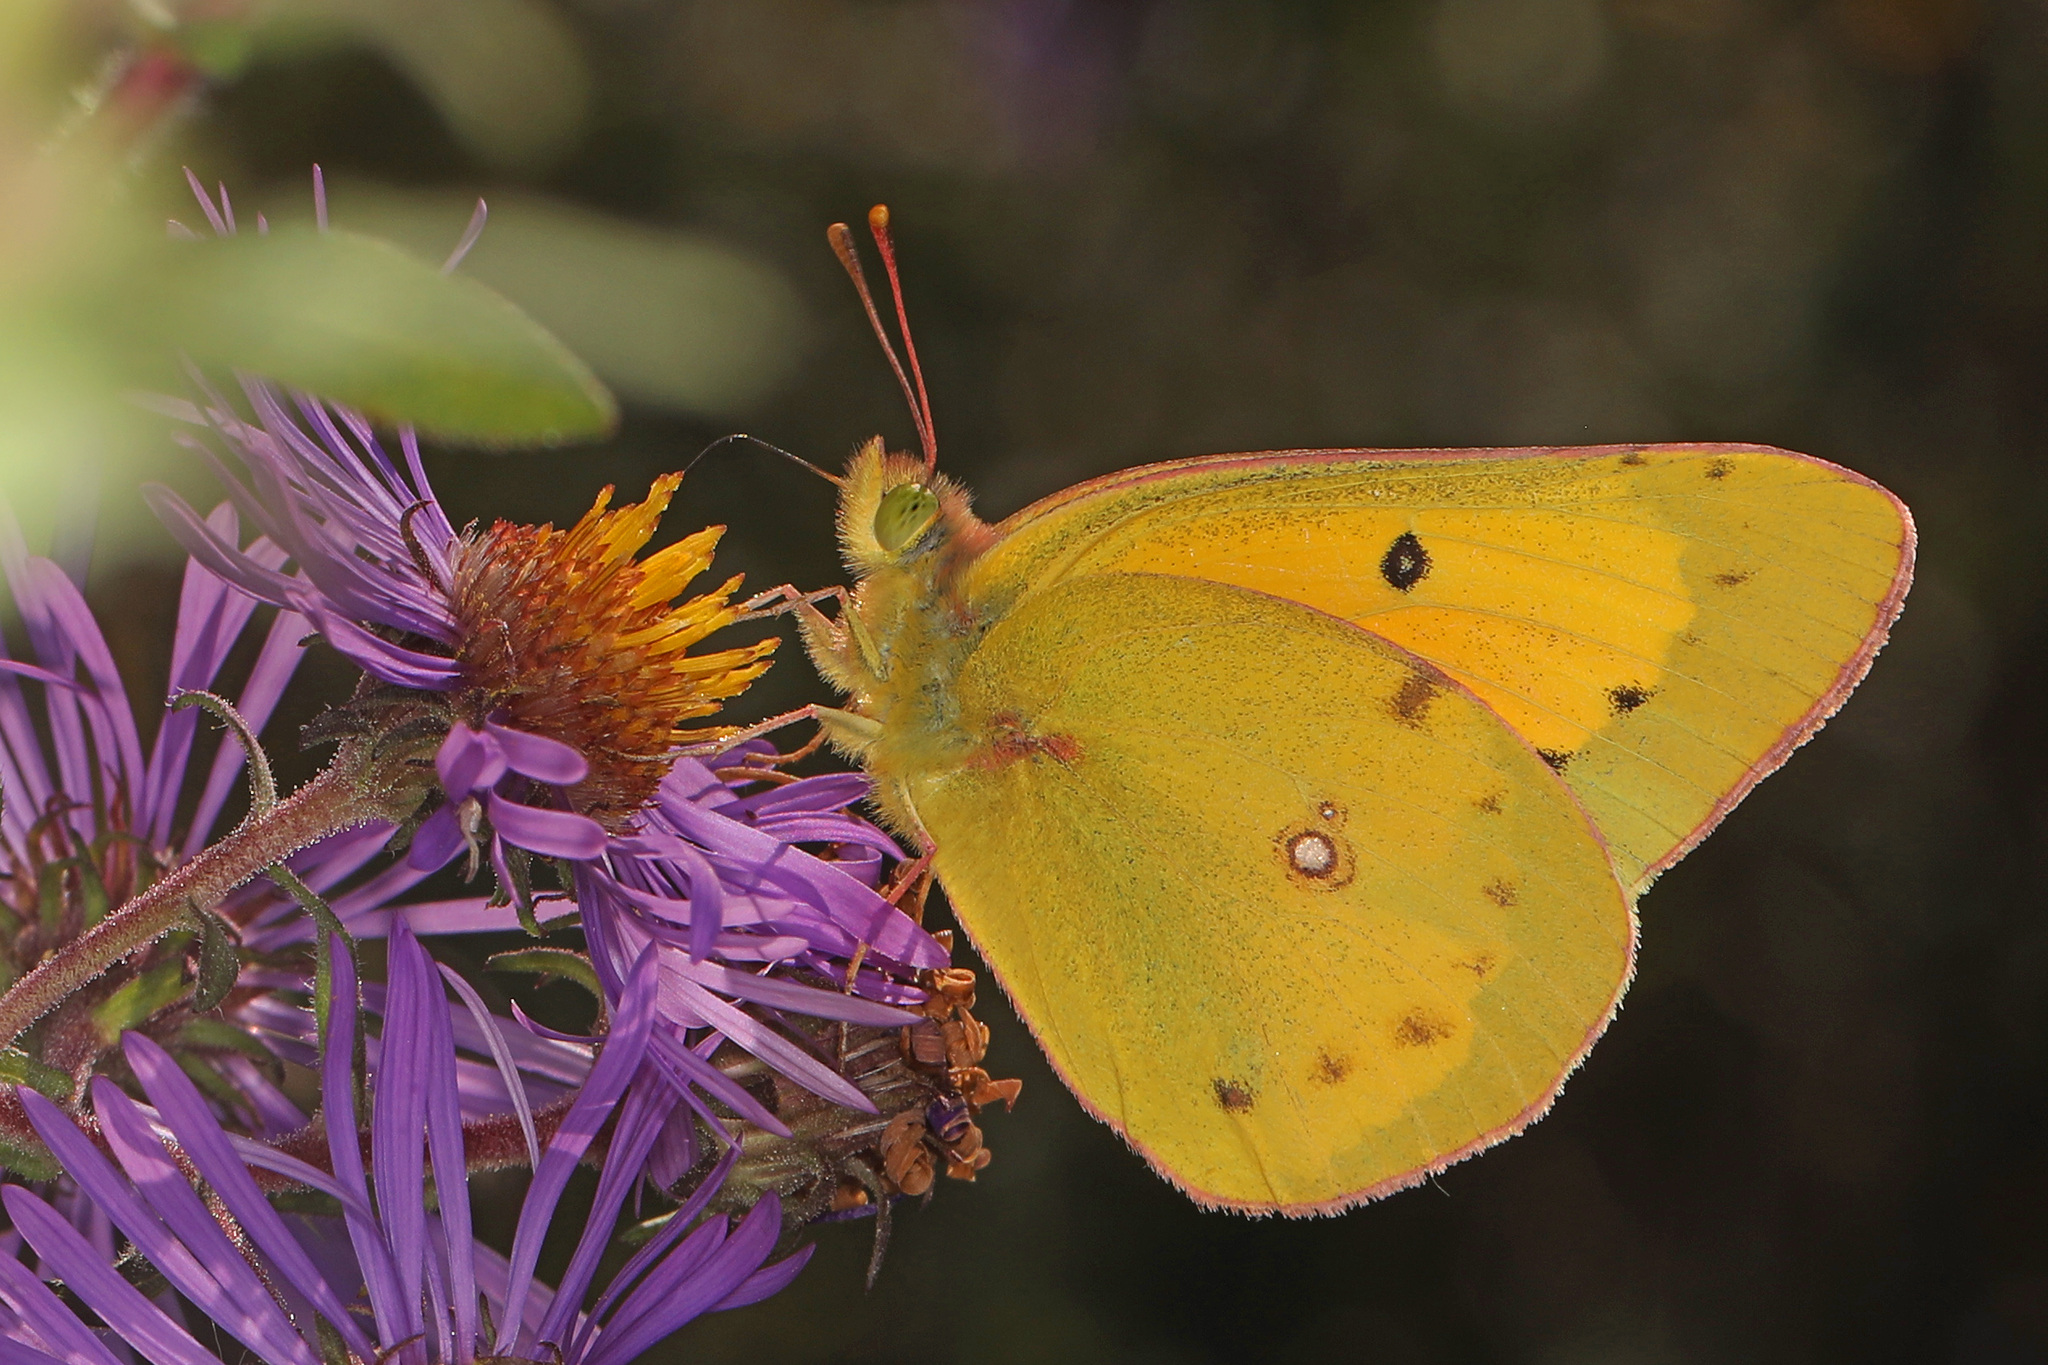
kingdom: Animalia
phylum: Arthropoda
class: Insecta
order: Lepidoptera
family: Pieridae
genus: Colias
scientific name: Colias eurytheme
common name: Alfalfa butterfly
